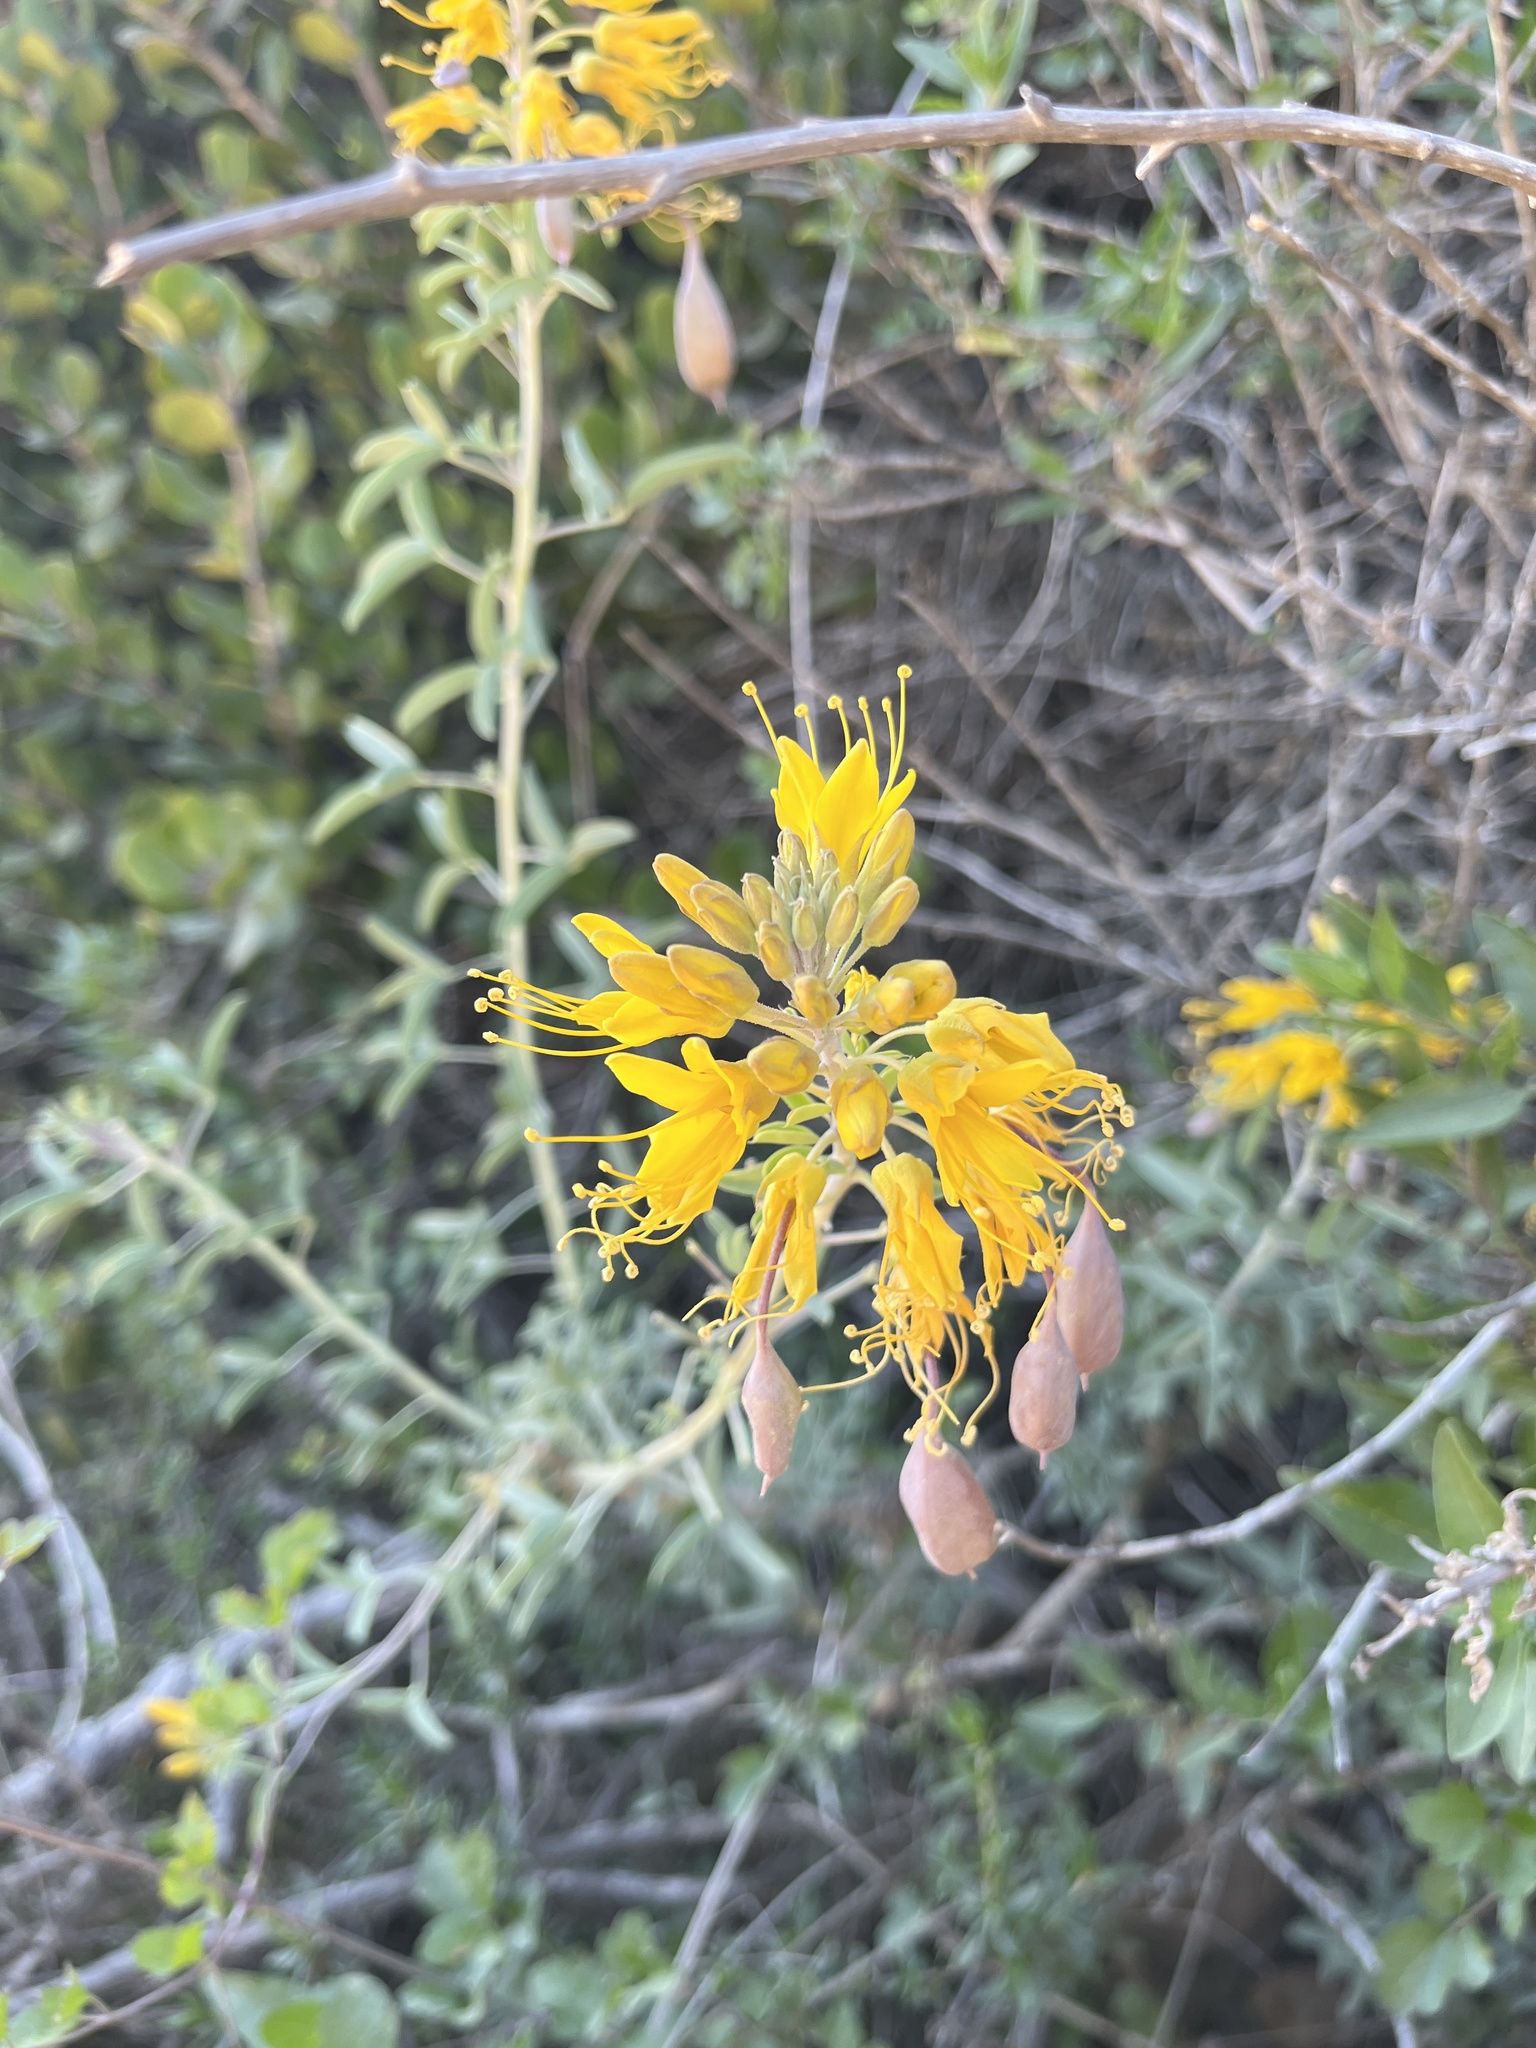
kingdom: Plantae
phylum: Tracheophyta
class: Magnoliopsida
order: Brassicales
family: Cleomaceae
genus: Cleomella
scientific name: Cleomella arborea
